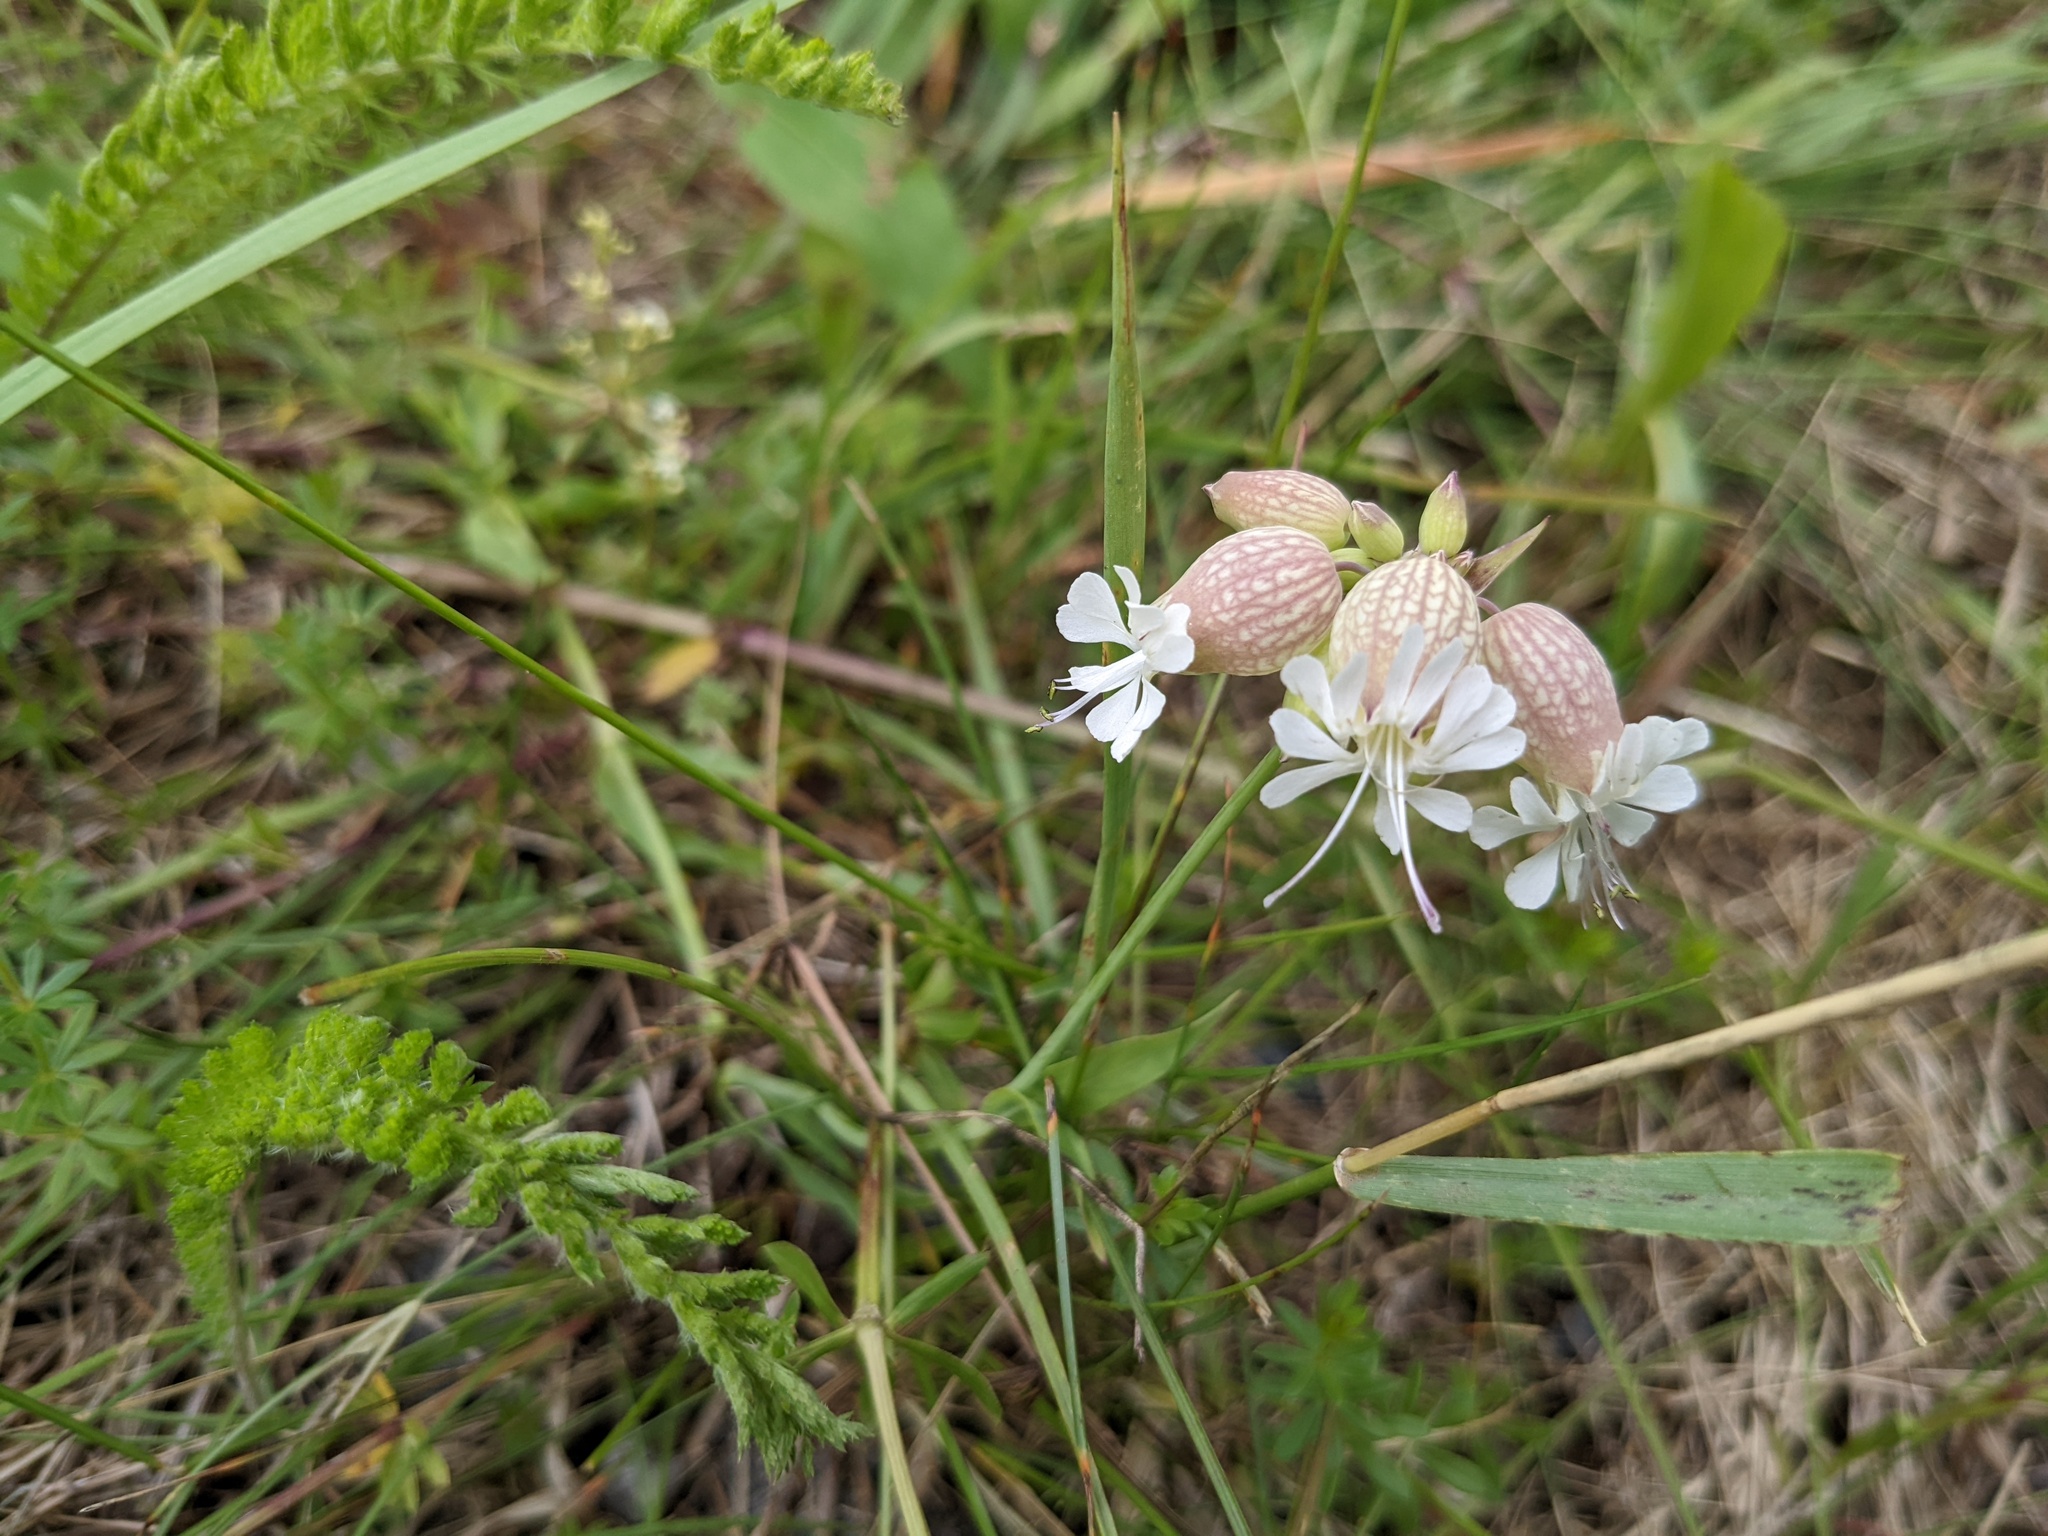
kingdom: Plantae
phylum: Tracheophyta
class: Magnoliopsida
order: Caryophyllales
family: Caryophyllaceae
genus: Silene
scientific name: Silene vulgaris
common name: Bladder campion
